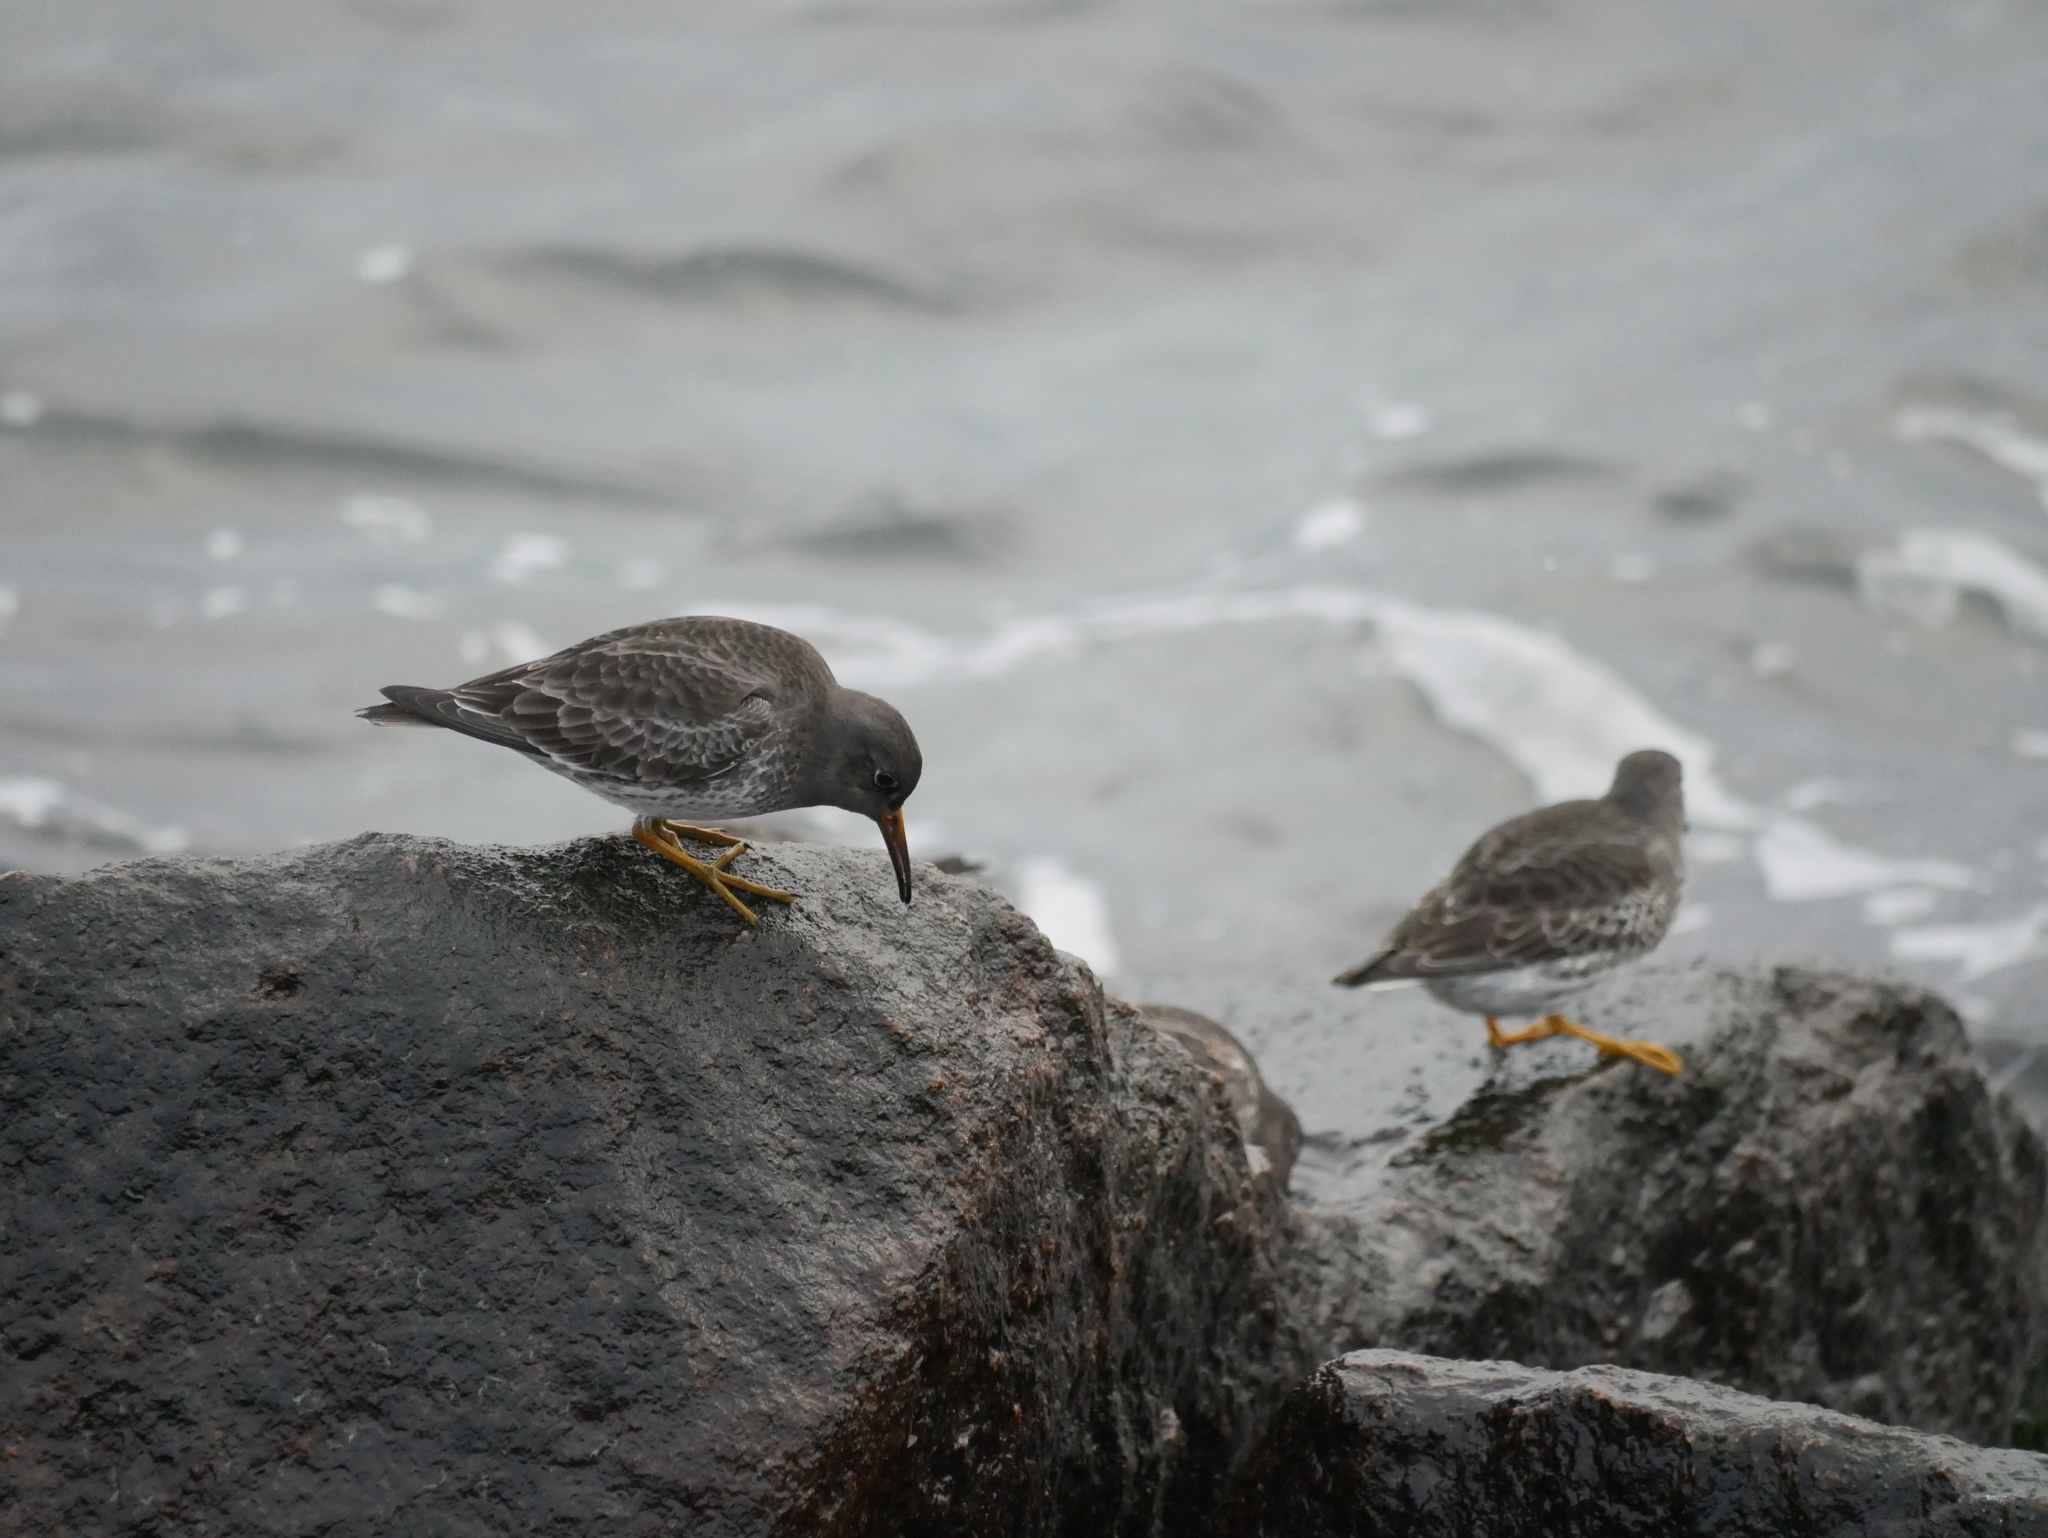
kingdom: Animalia
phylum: Chordata
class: Aves
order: Charadriiformes
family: Scolopacidae
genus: Calidris
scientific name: Calidris maritima
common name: Purple sandpiper
